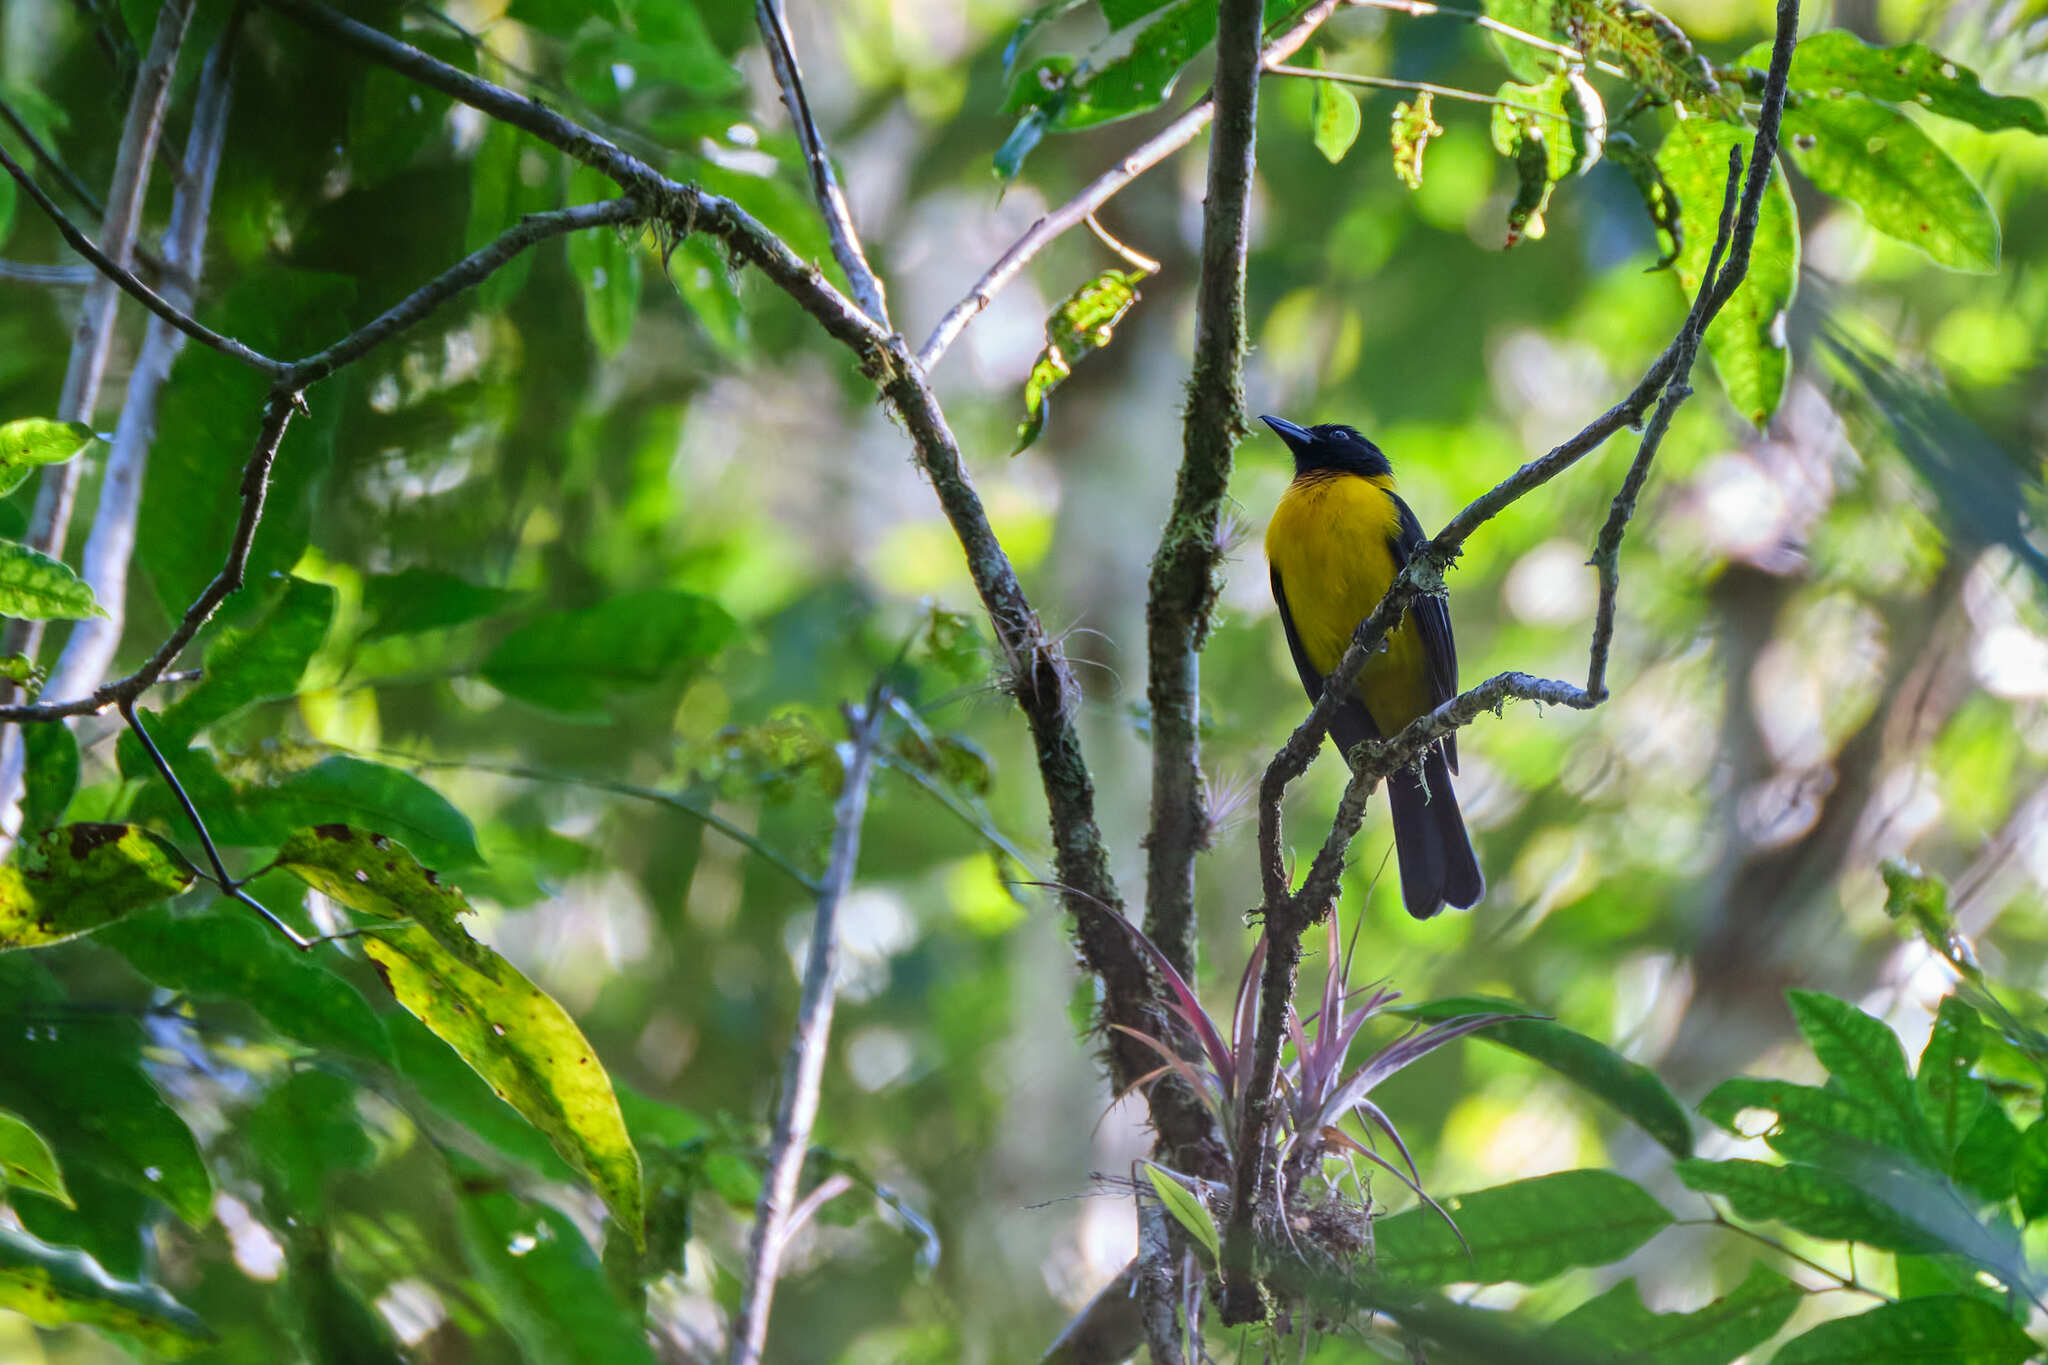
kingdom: Animalia
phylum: Chordata
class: Aves
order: Passeriformes
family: Thraupidae
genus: Lanio
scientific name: Lanio aurantius
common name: Black-throated shrike-tanager
